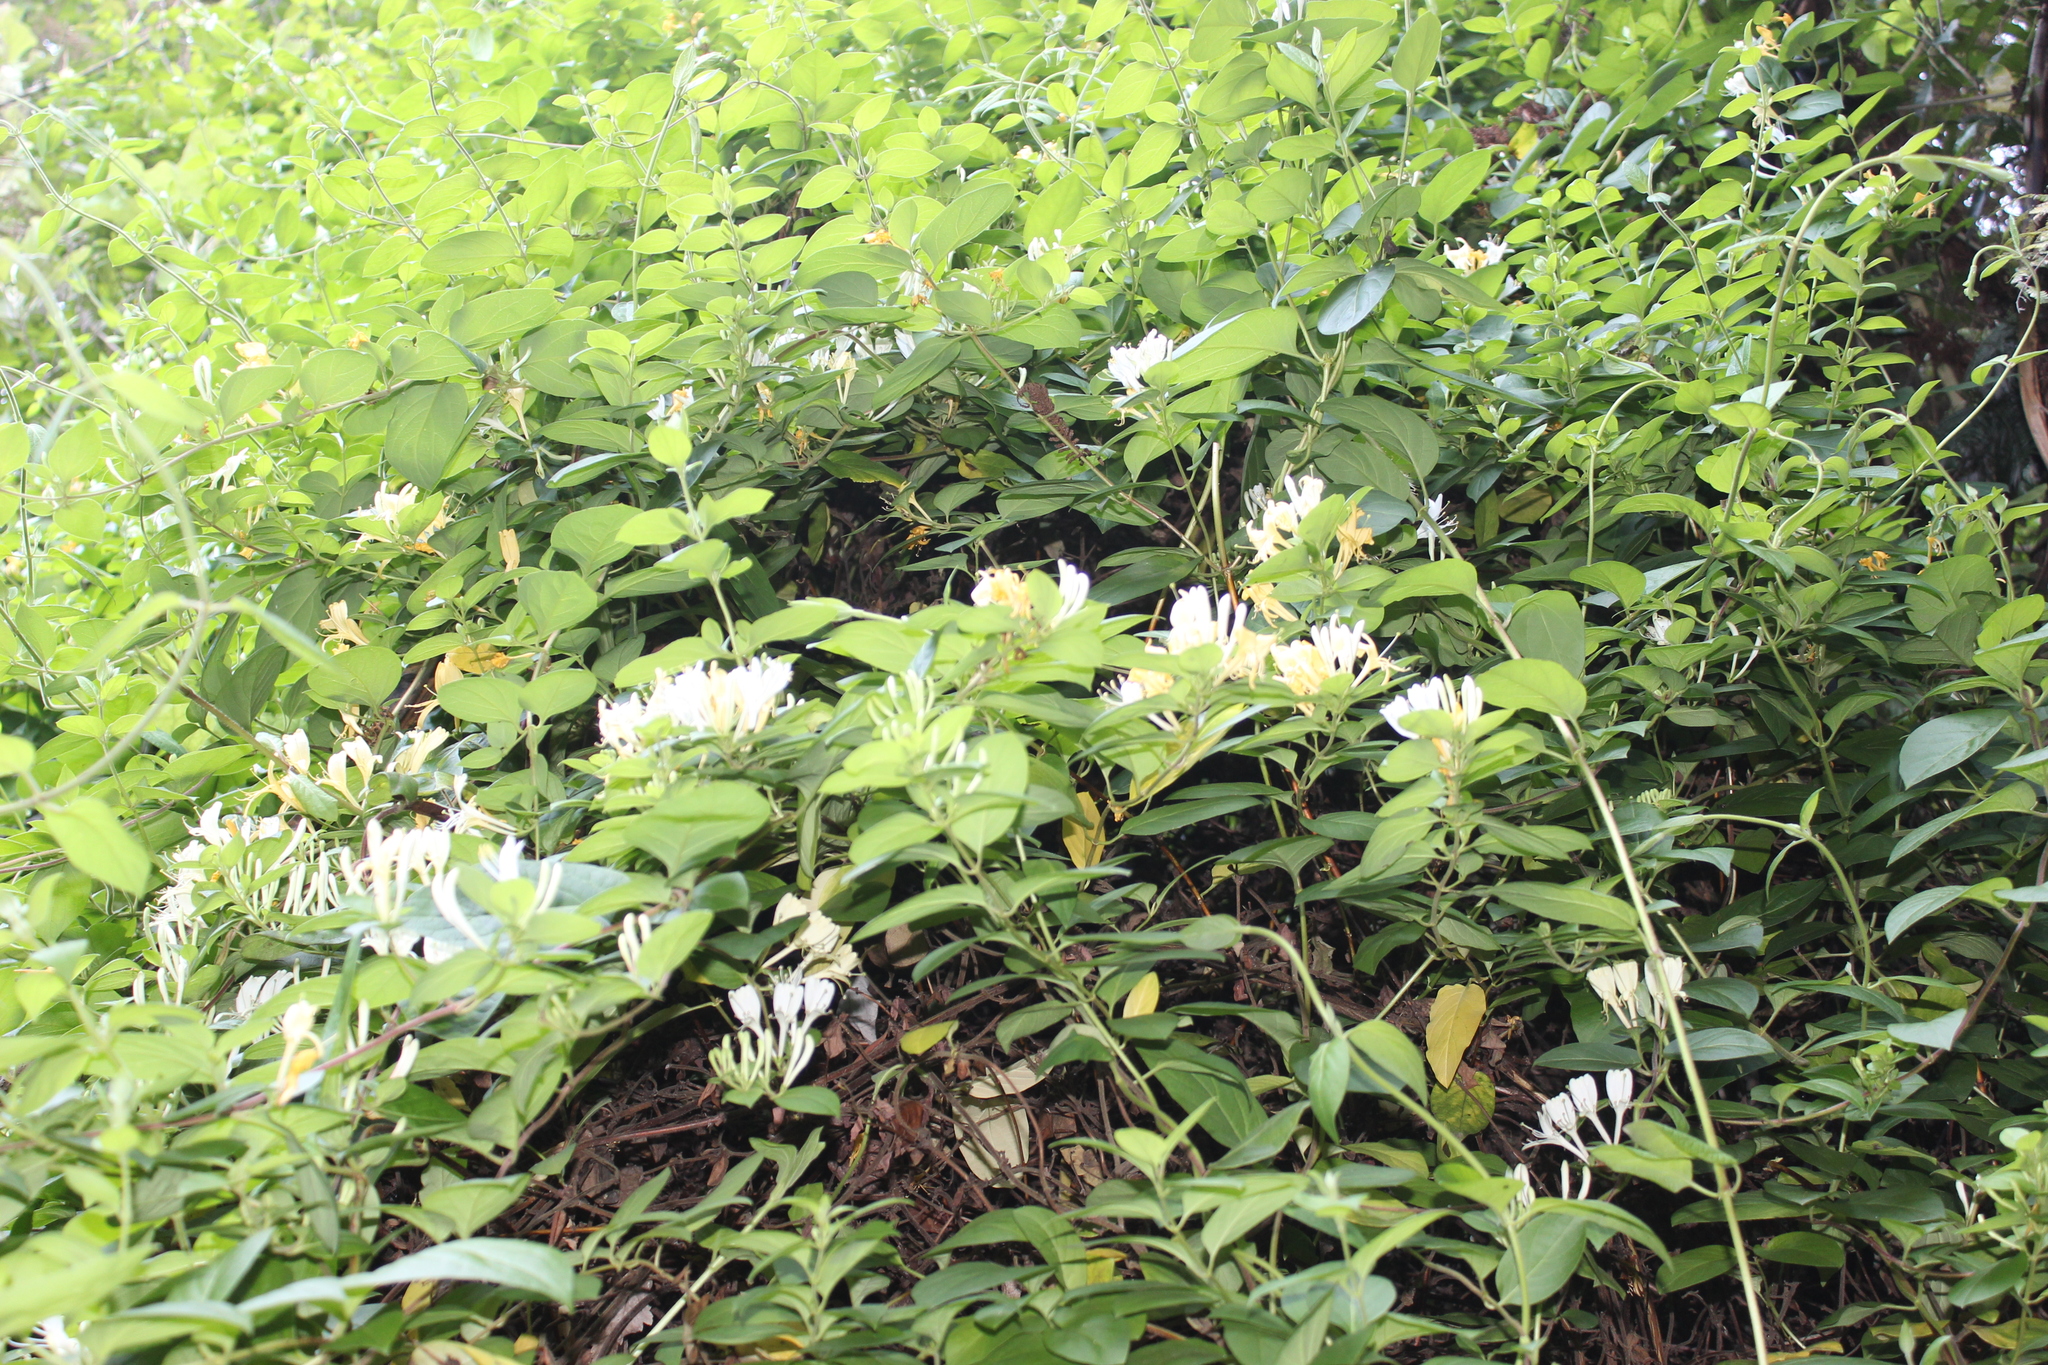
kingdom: Plantae
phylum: Tracheophyta
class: Magnoliopsida
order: Dipsacales
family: Caprifoliaceae
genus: Lonicera
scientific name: Lonicera japonica
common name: Japanese honeysuckle
